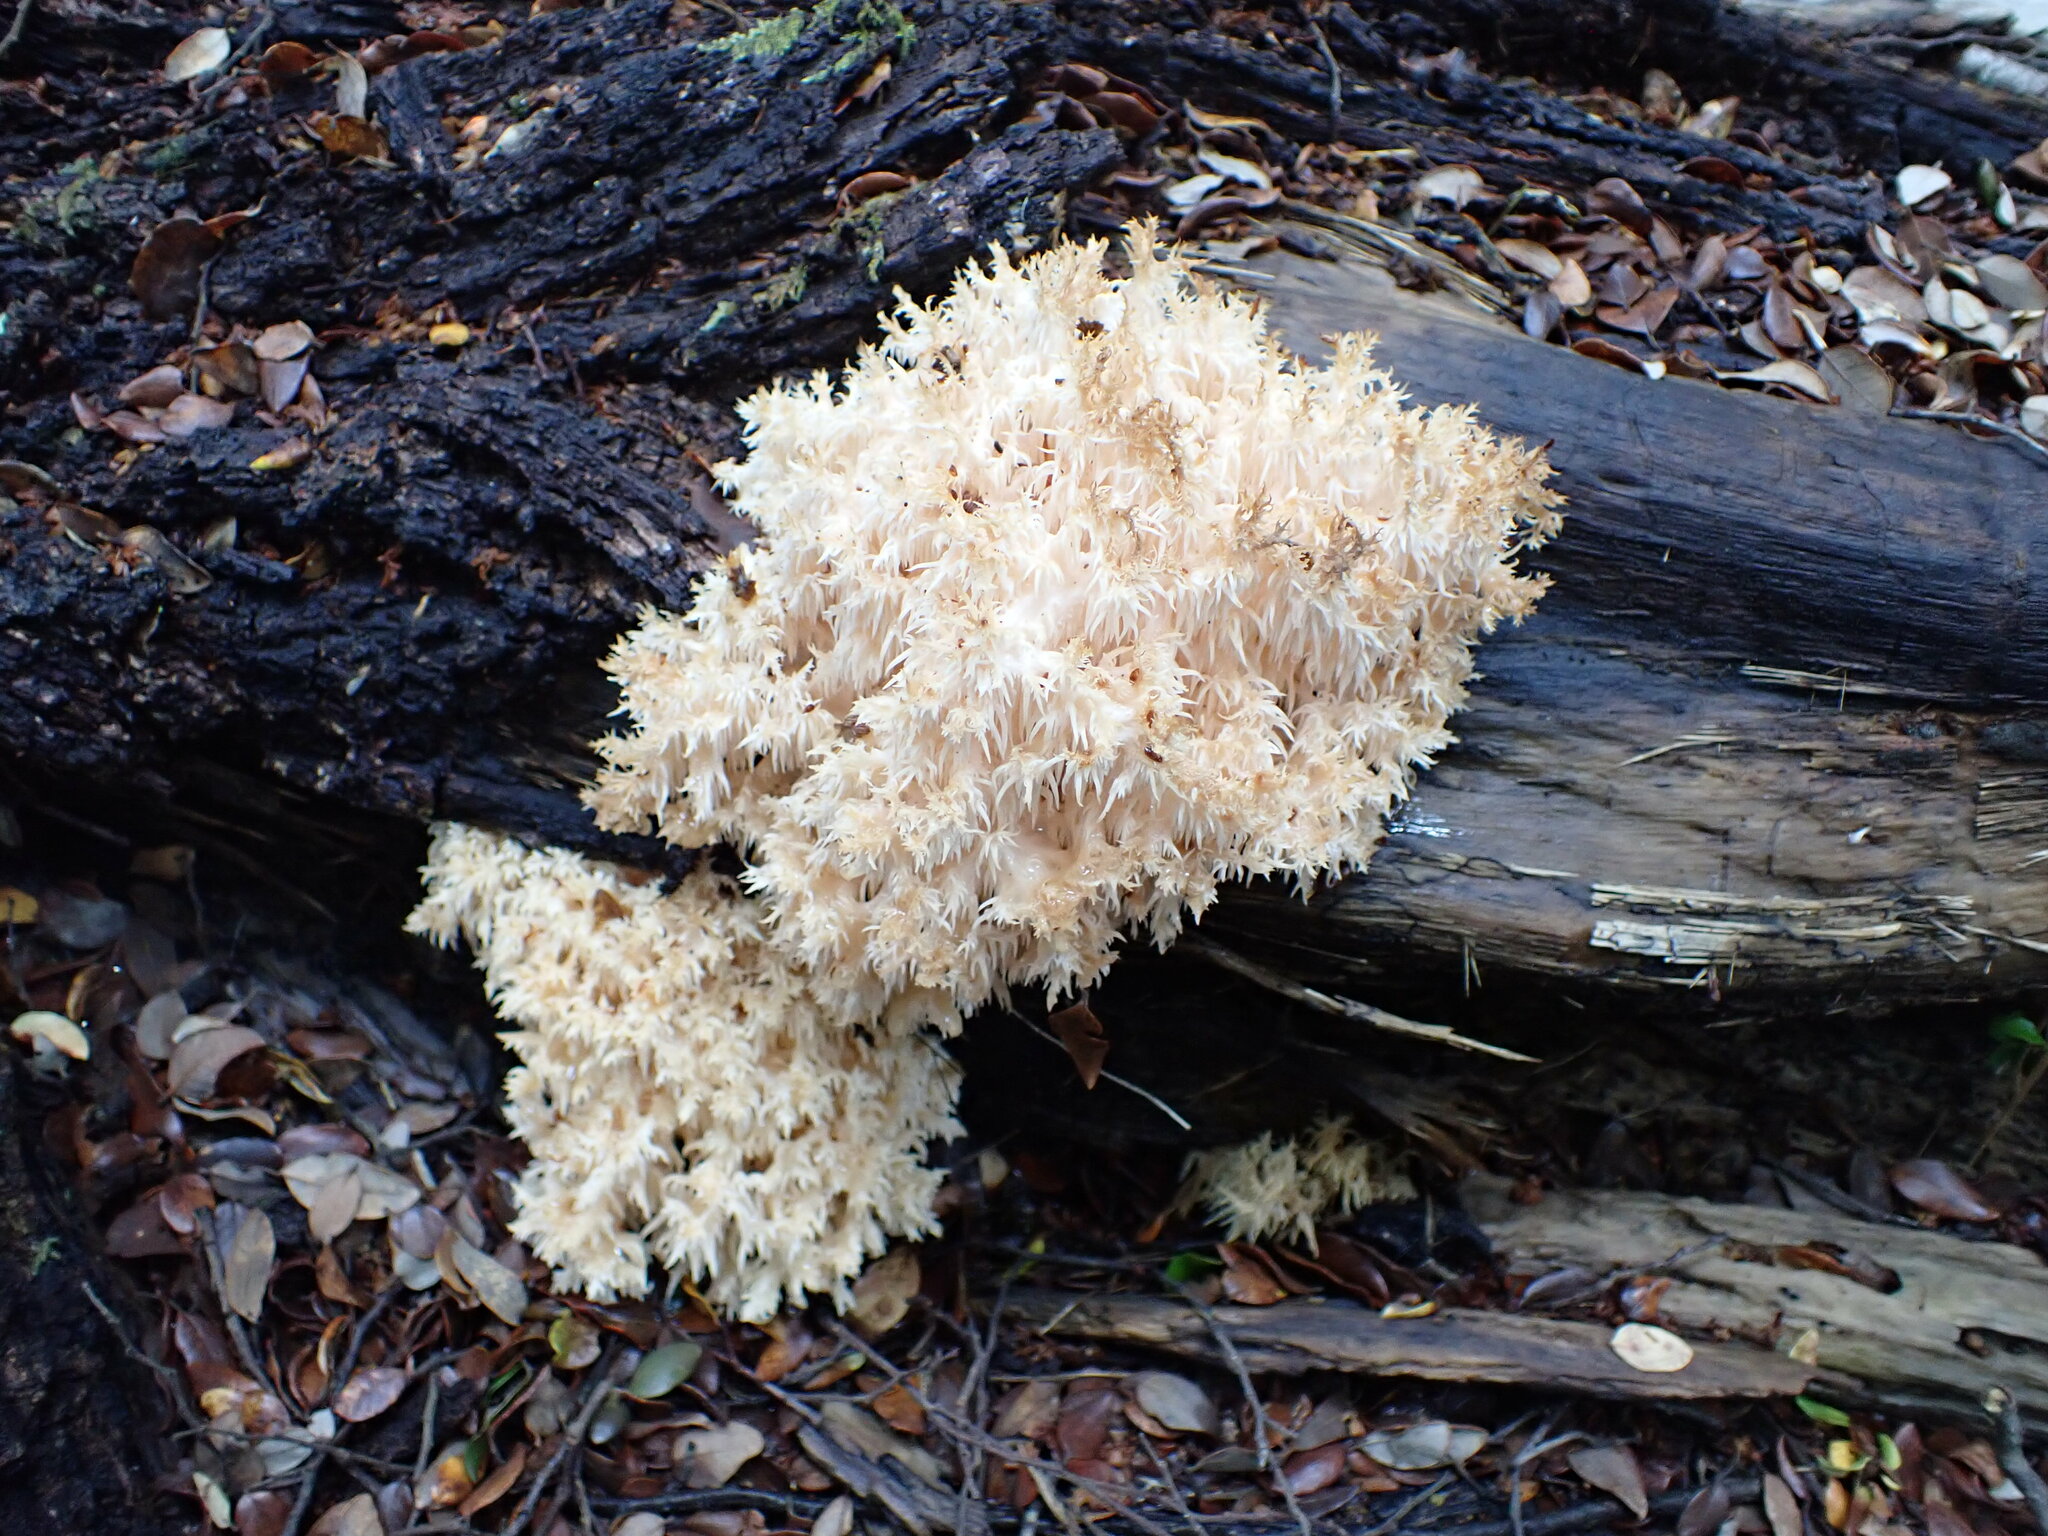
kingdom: Fungi
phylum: Basidiomycota
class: Agaricomycetes
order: Russulales
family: Hericiaceae
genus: Hericium
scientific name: Hericium novae-zealandiae
